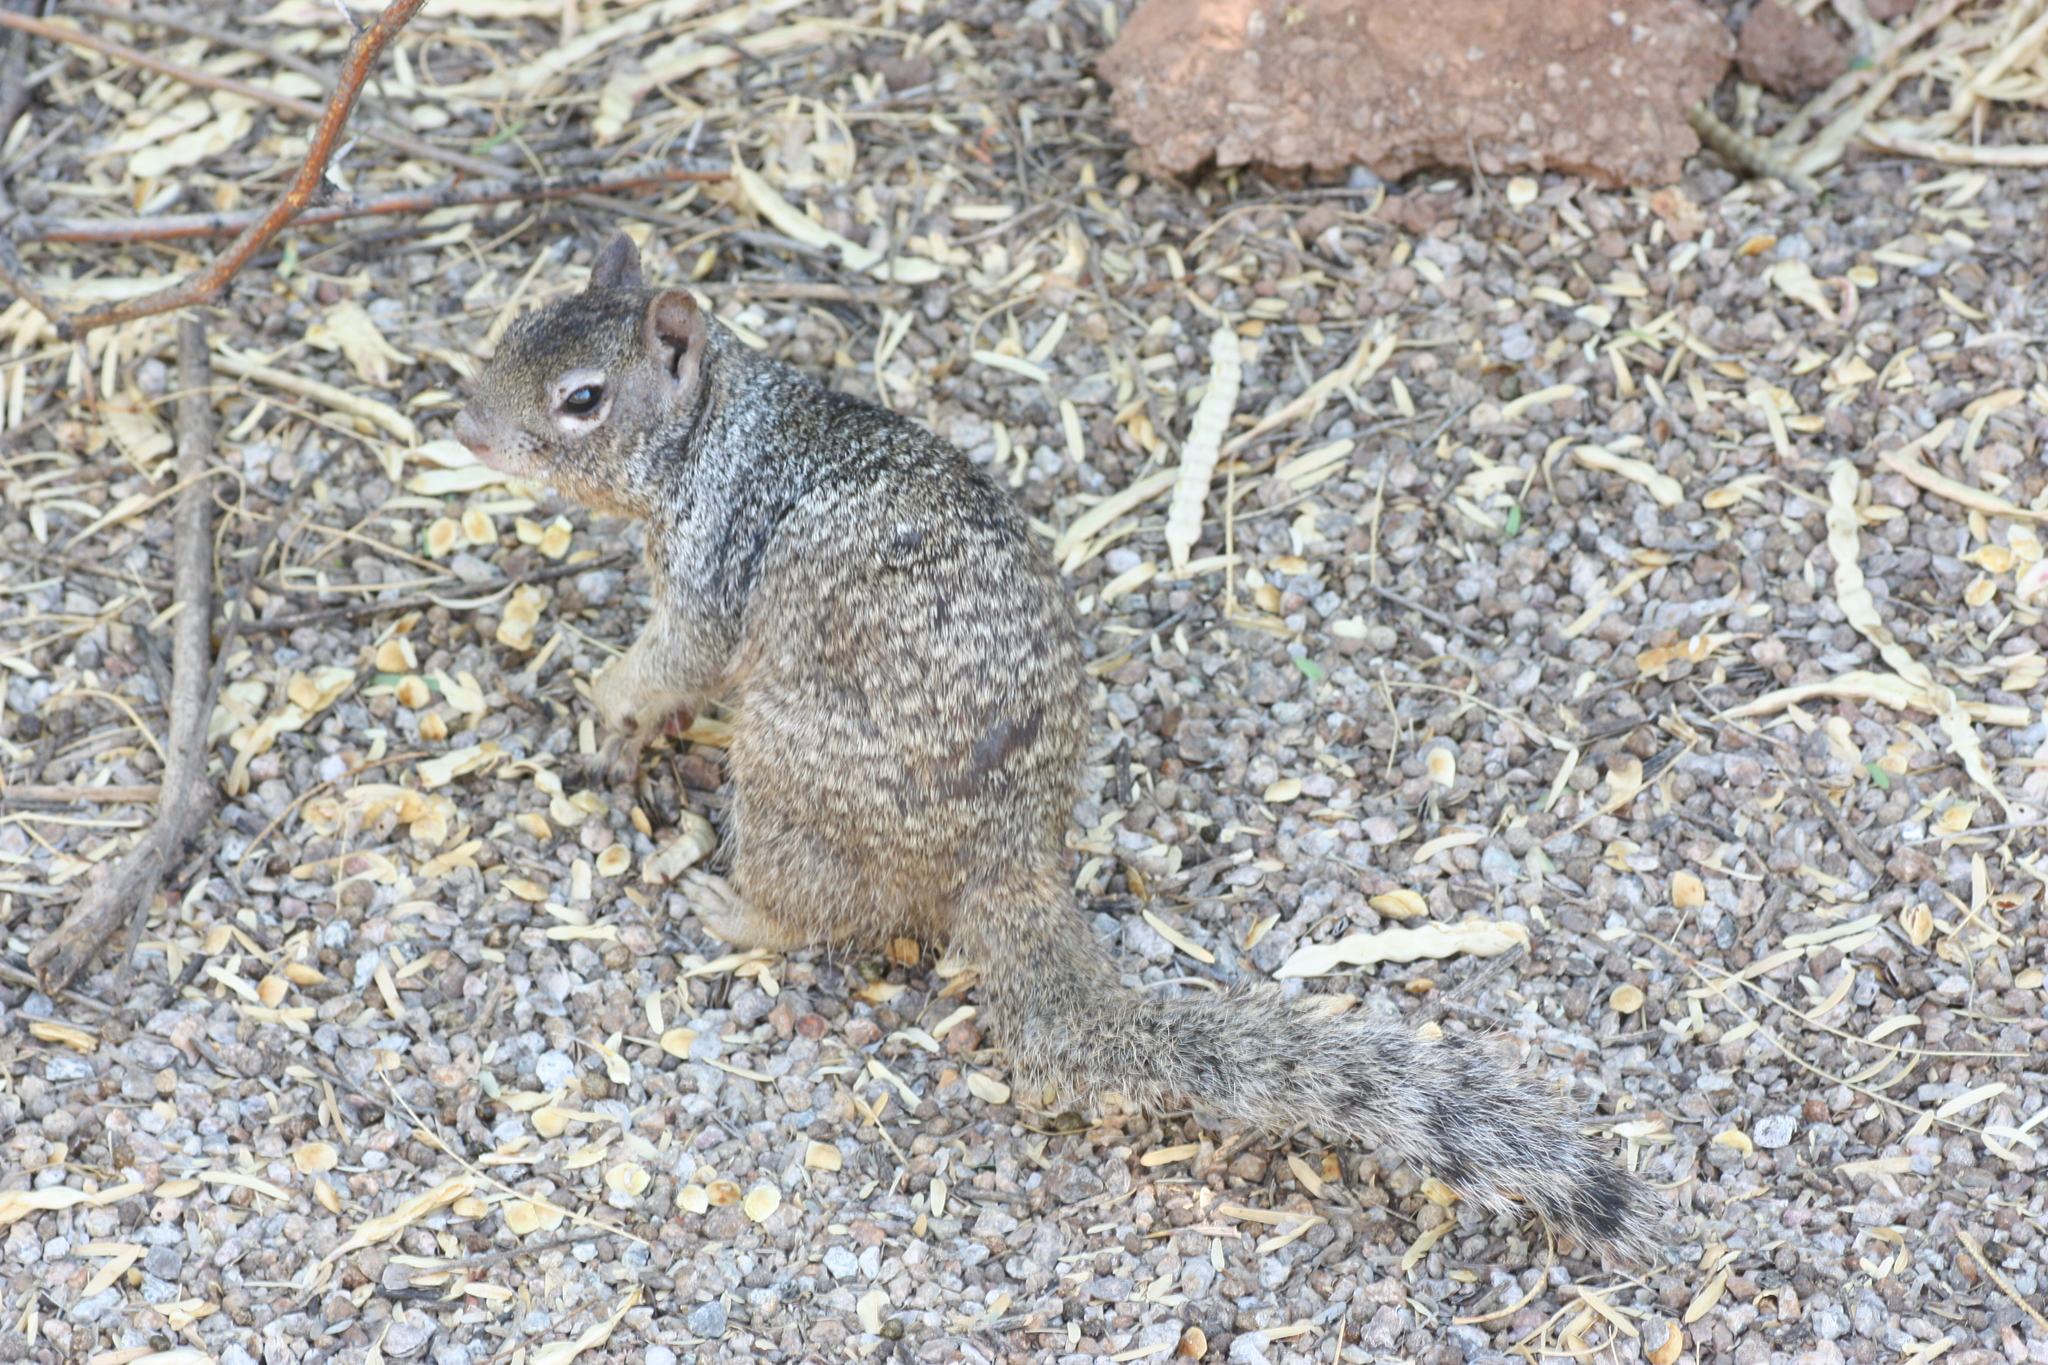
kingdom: Animalia
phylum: Chordata
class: Mammalia
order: Rodentia
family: Sciuridae
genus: Otospermophilus
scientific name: Otospermophilus variegatus
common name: Rock squirrel
